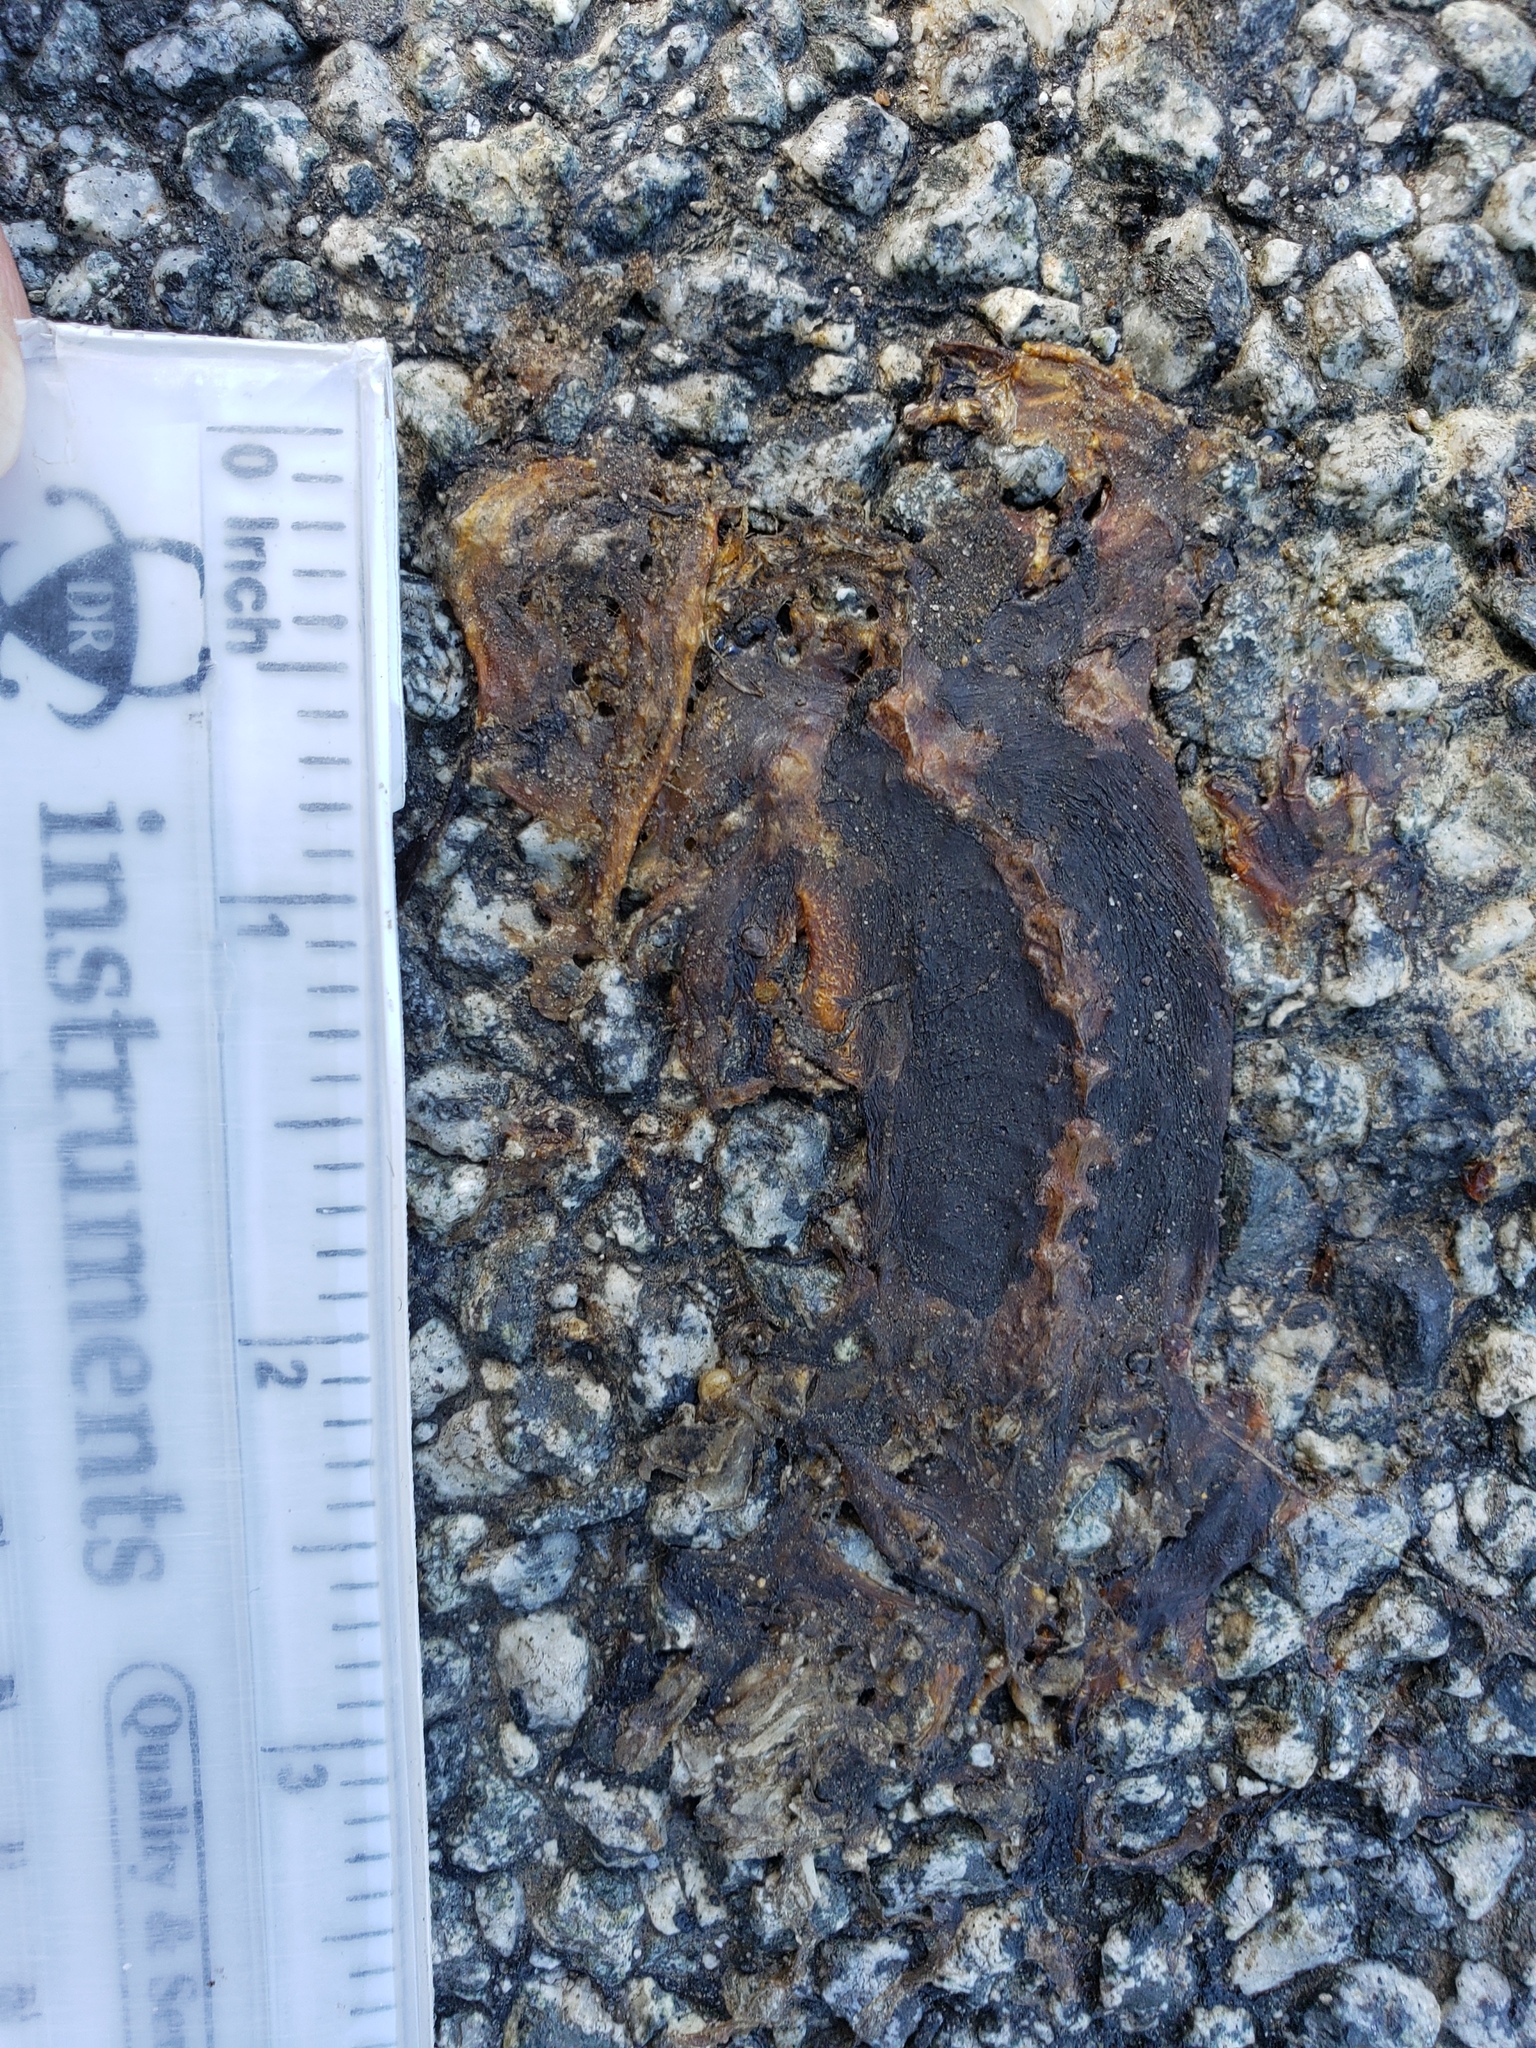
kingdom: Animalia
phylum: Chordata
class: Amphibia
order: Caudata
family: Salamandridae
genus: Taricha
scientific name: Taricha
